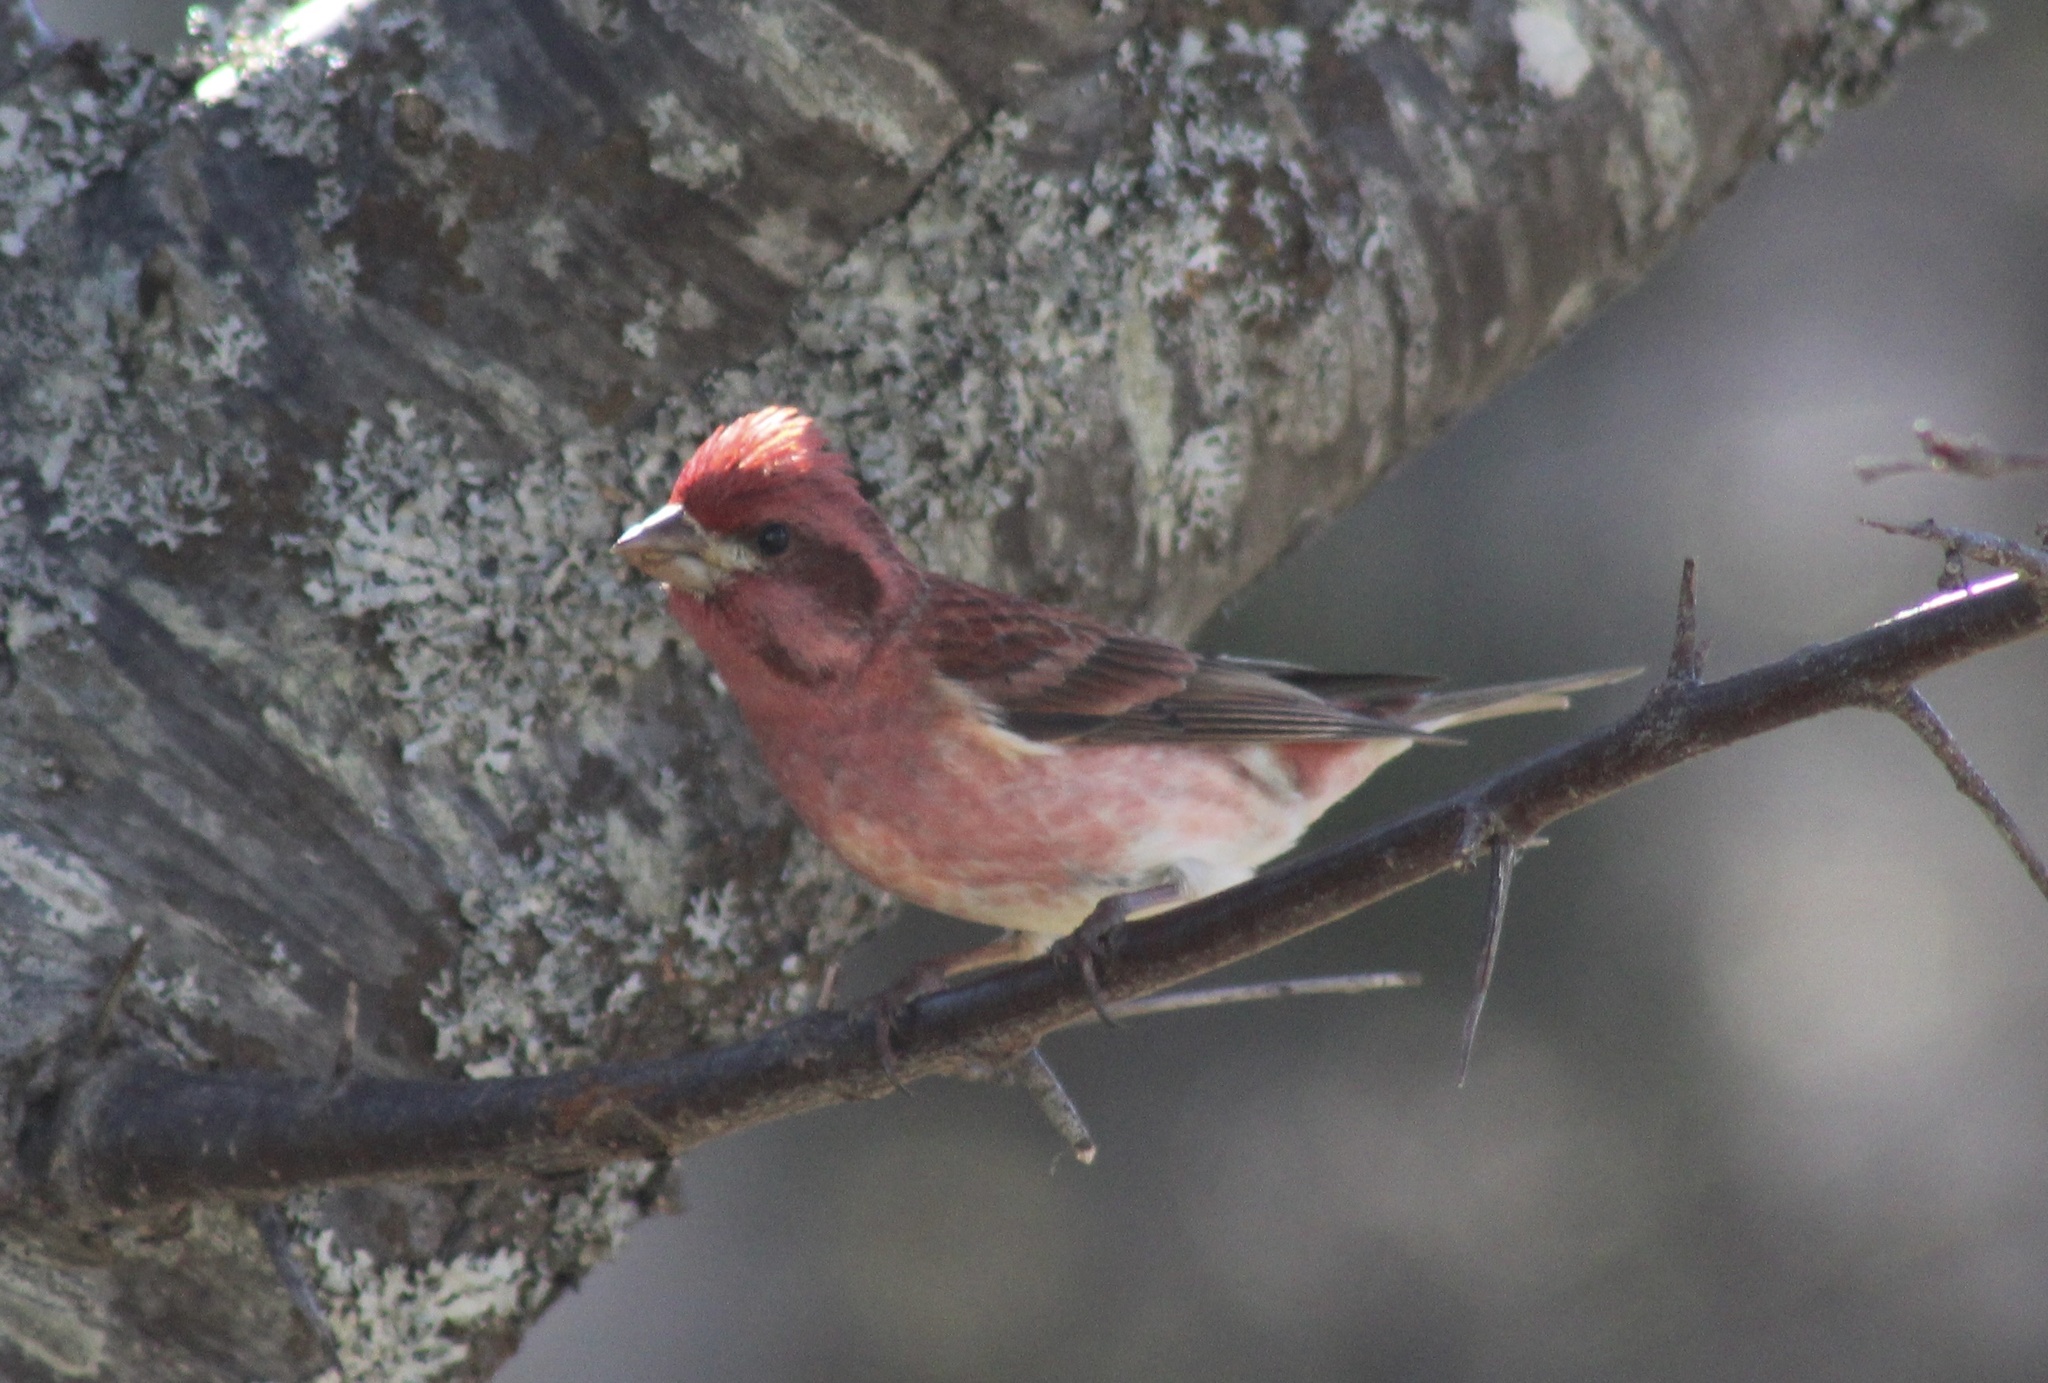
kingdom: Animalia
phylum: Chordata
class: Aves
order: Passeriformes
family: Fringillidae
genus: Haemorhous
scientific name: Haemorhous purpureus
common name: Purple finch
